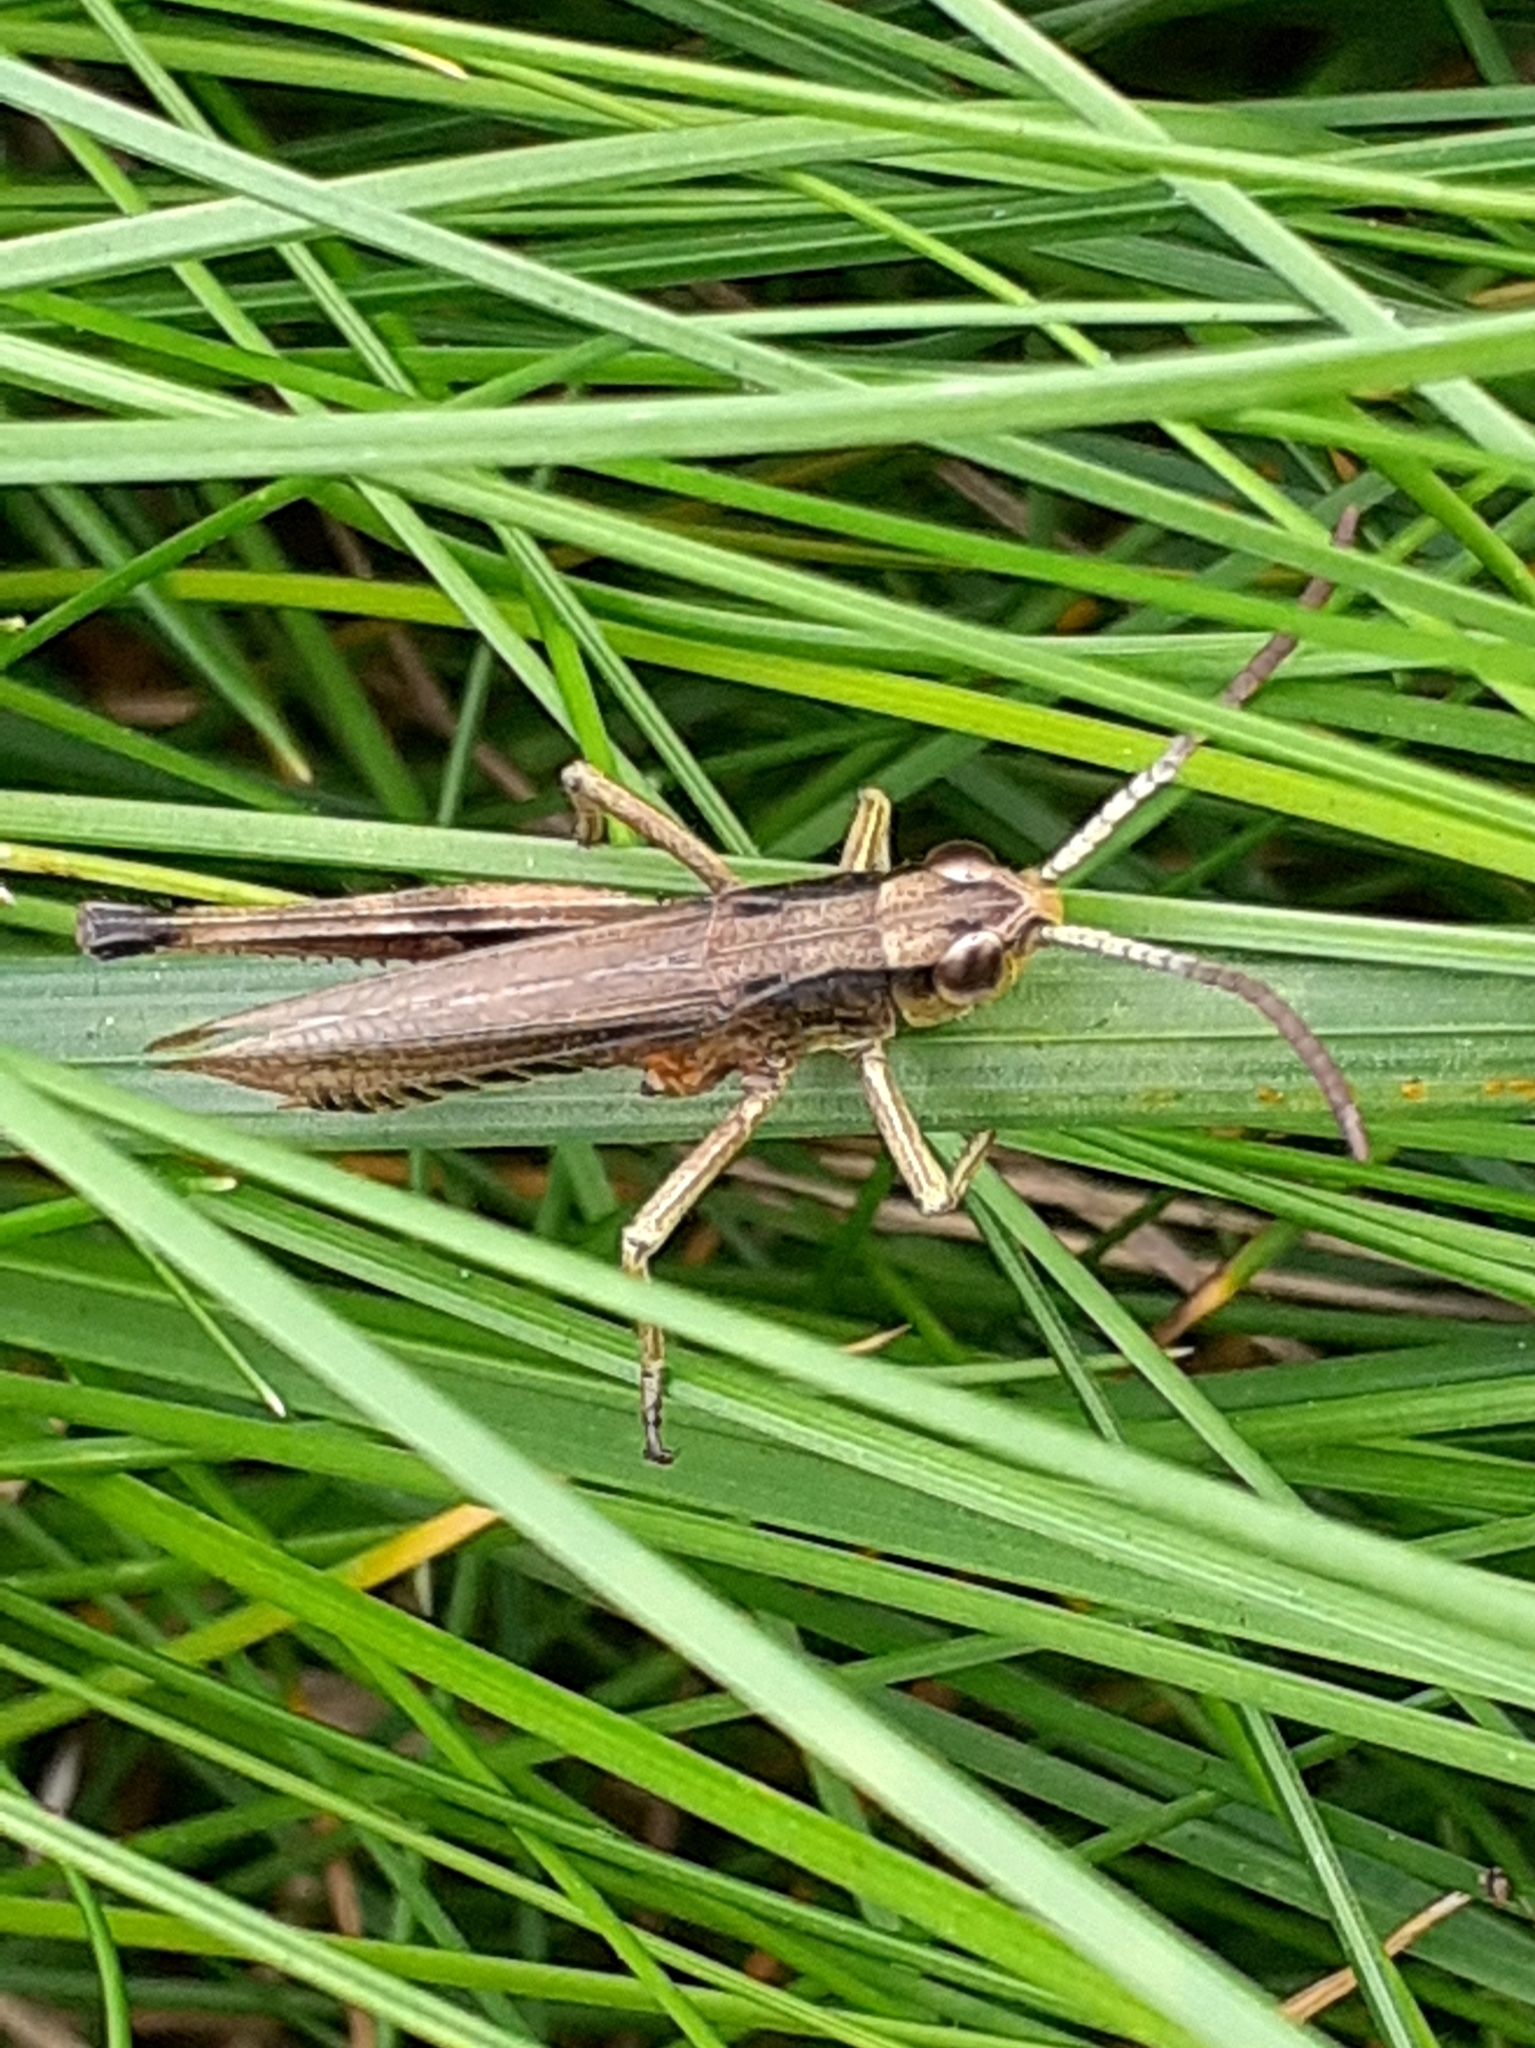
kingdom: Animalia
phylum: Arthropoda
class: Insecta
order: Orthoptera
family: Acrididae
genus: Pseudochorthippus
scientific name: Pseudochorthippus parallelus
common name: Meadow grasshopper
